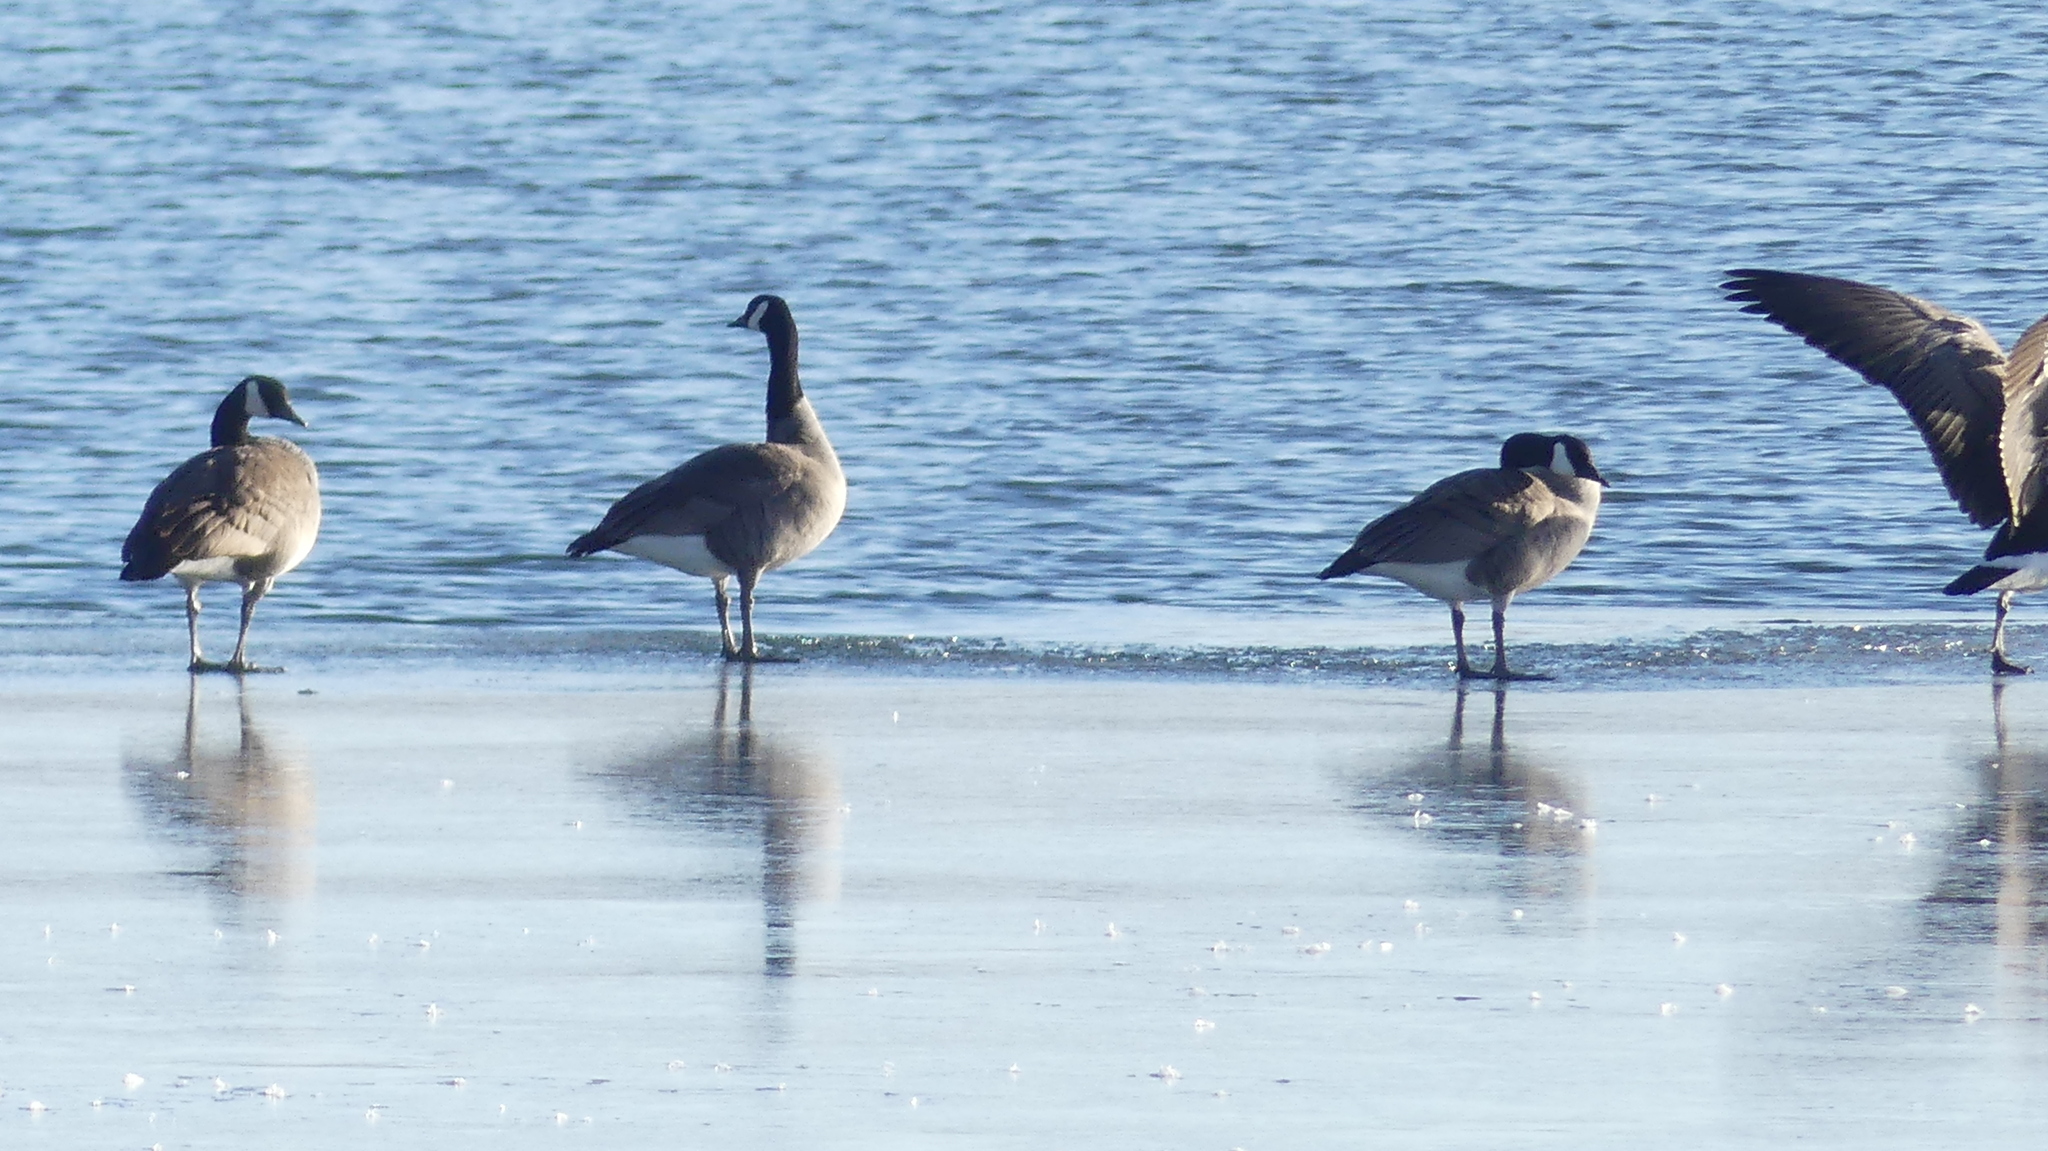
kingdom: Animalia
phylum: Chordata
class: Aves
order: Anseriformes
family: Anatidae
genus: Branta
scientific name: Branta canadensis
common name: Canada goose
